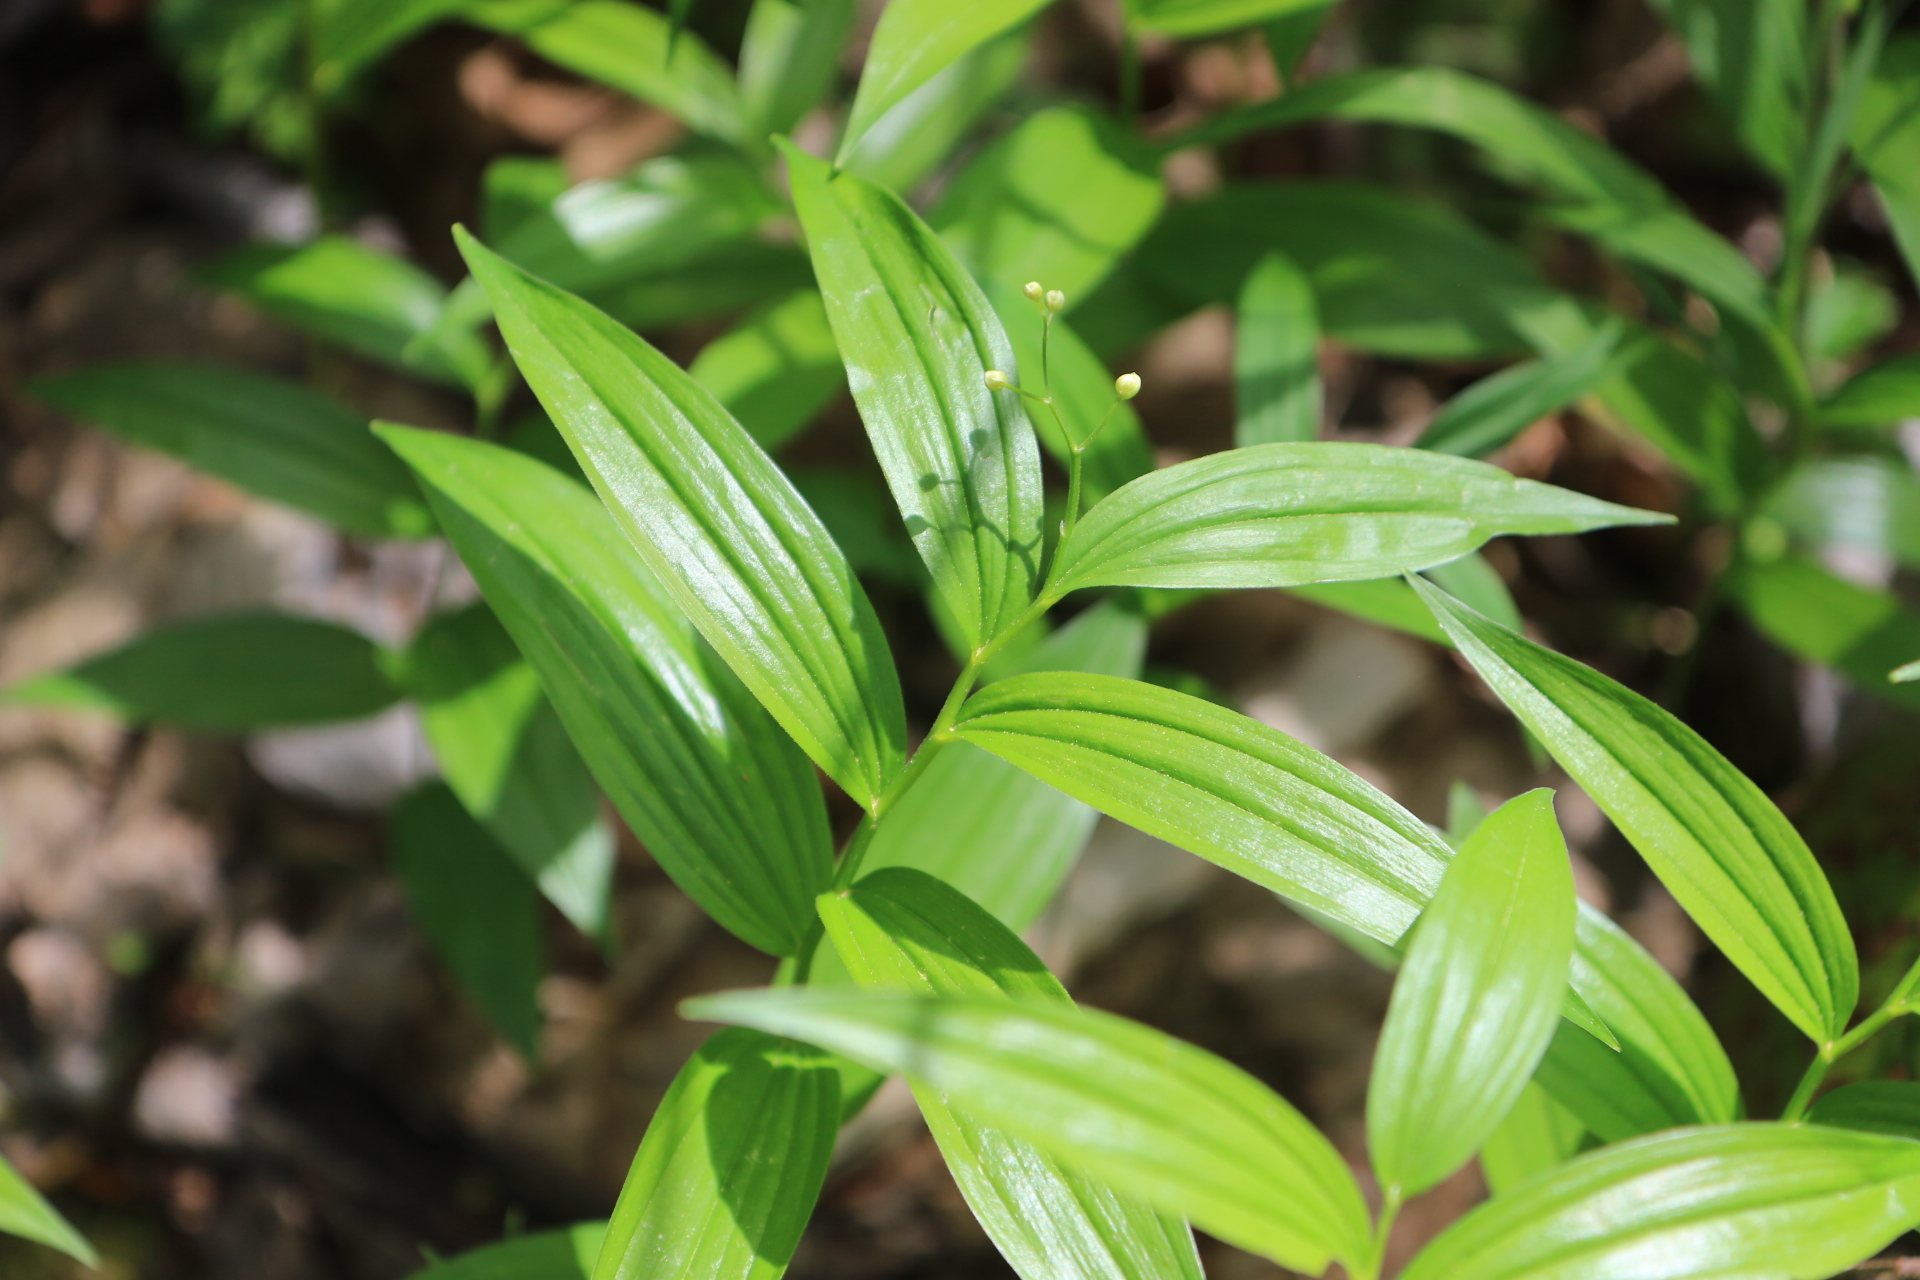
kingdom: Plantae
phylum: Tracheophyta
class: Liliopsida
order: Asparagales
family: Asparagaceae
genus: Maianthemum
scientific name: Maianthemum stellatum
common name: Little false solomon's seal
